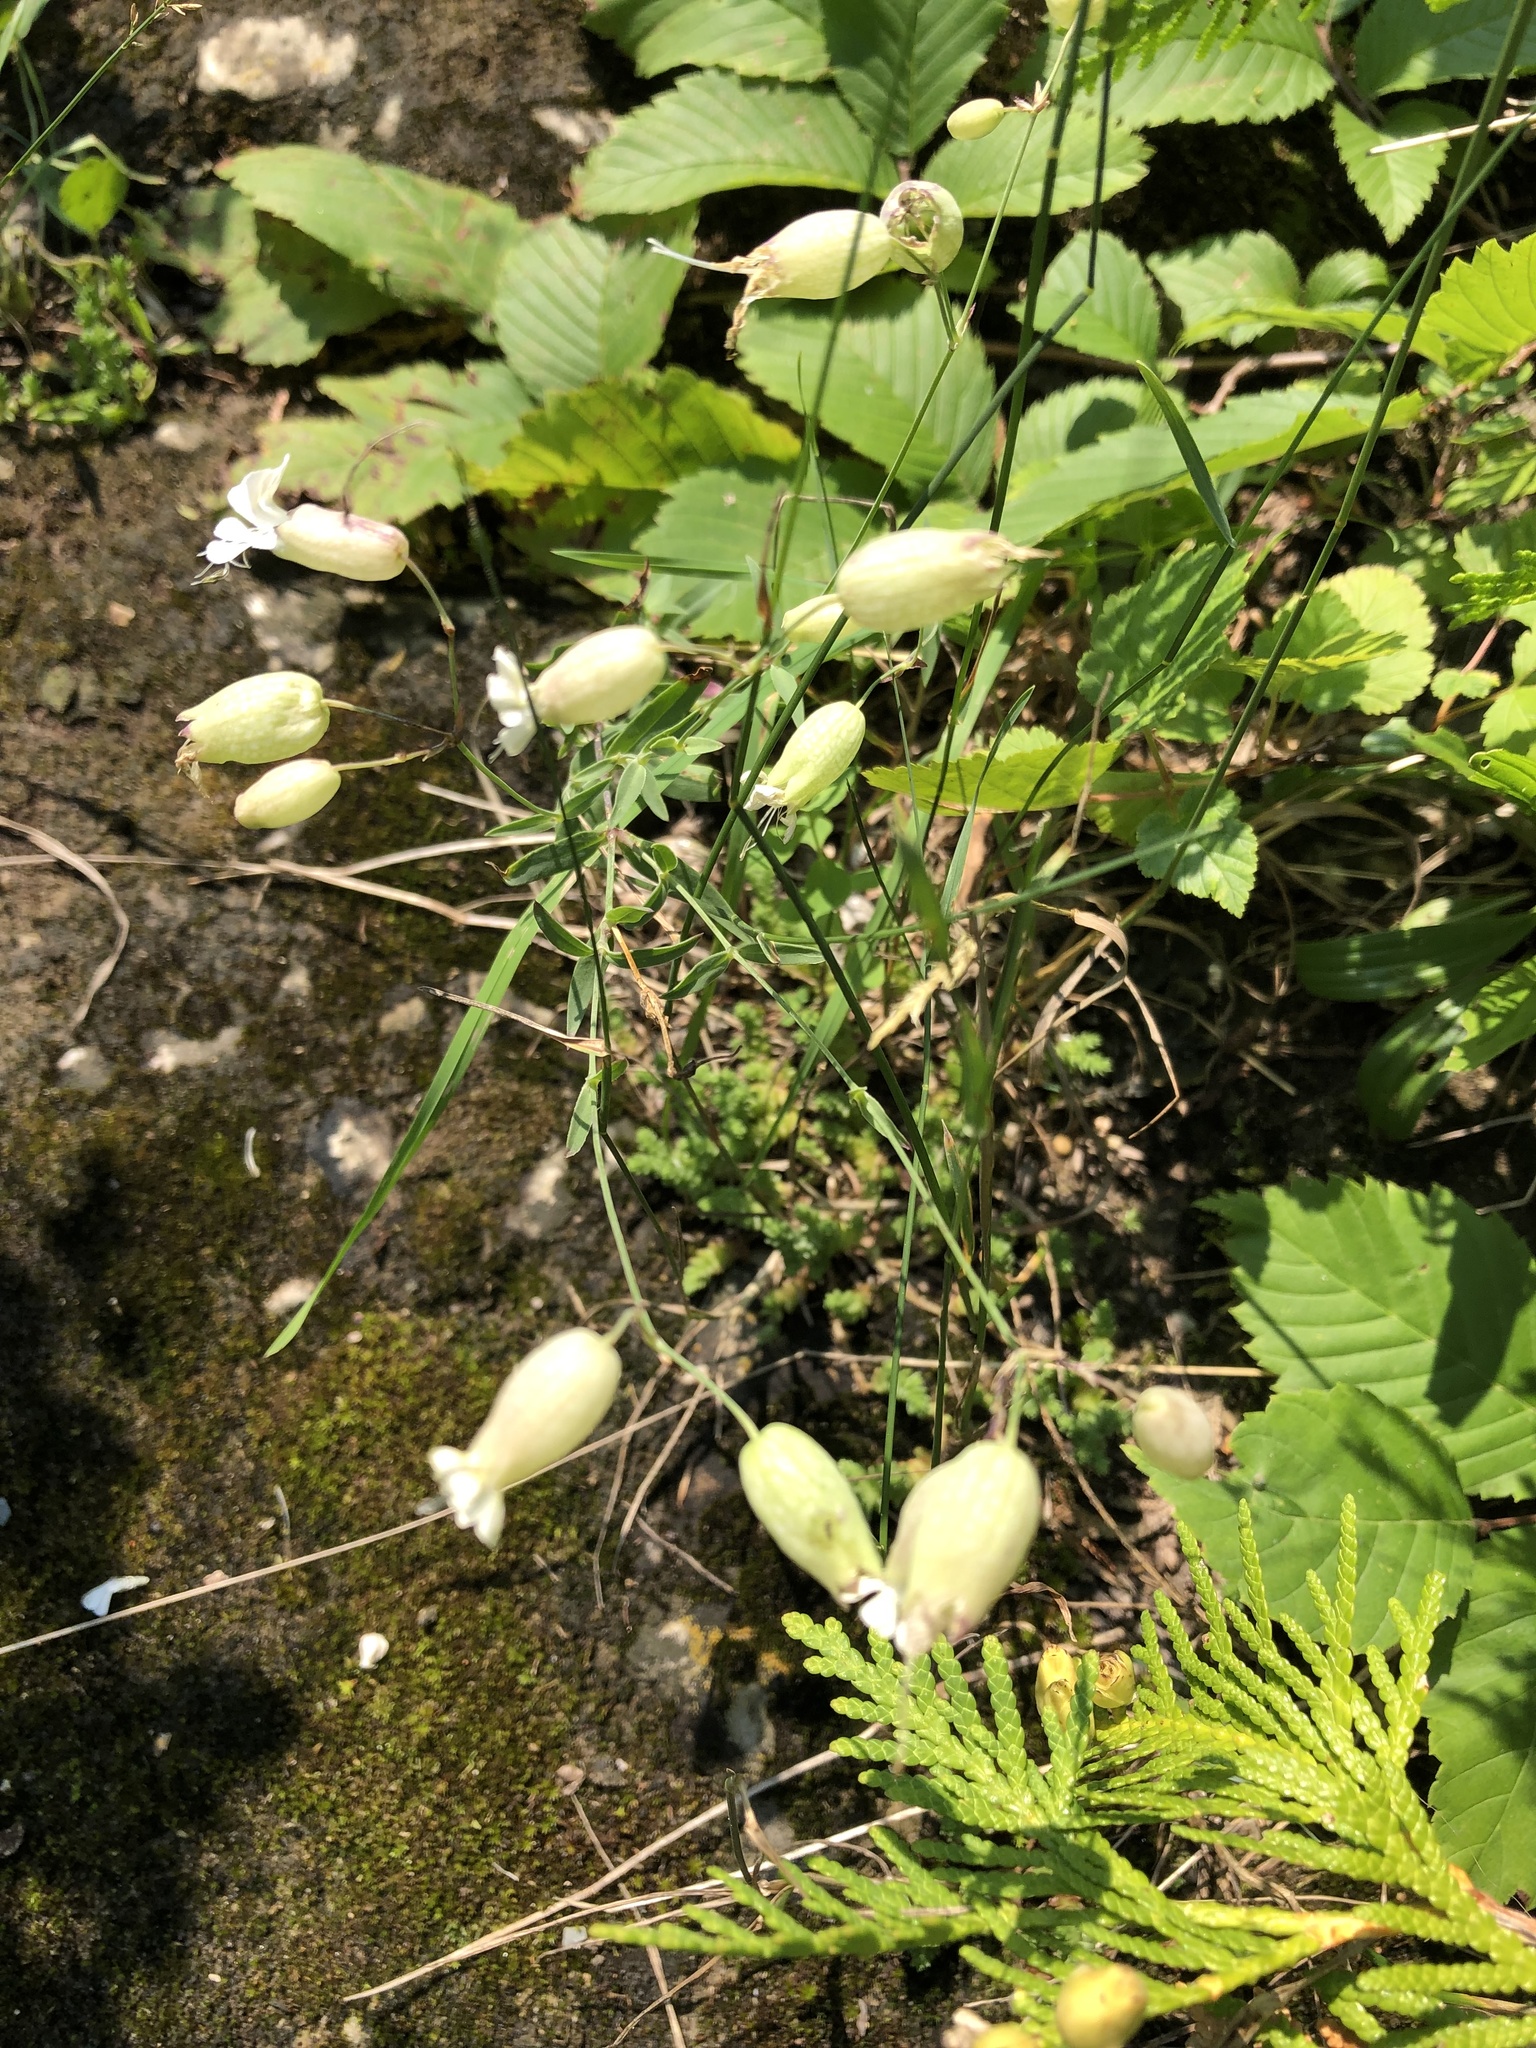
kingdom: Plantae
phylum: Tracheophyta
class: Magnoliopsida
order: Caryophyllales
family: Caryophyllaceae
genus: Silene
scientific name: Silene vulgaris
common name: Bladder campion
